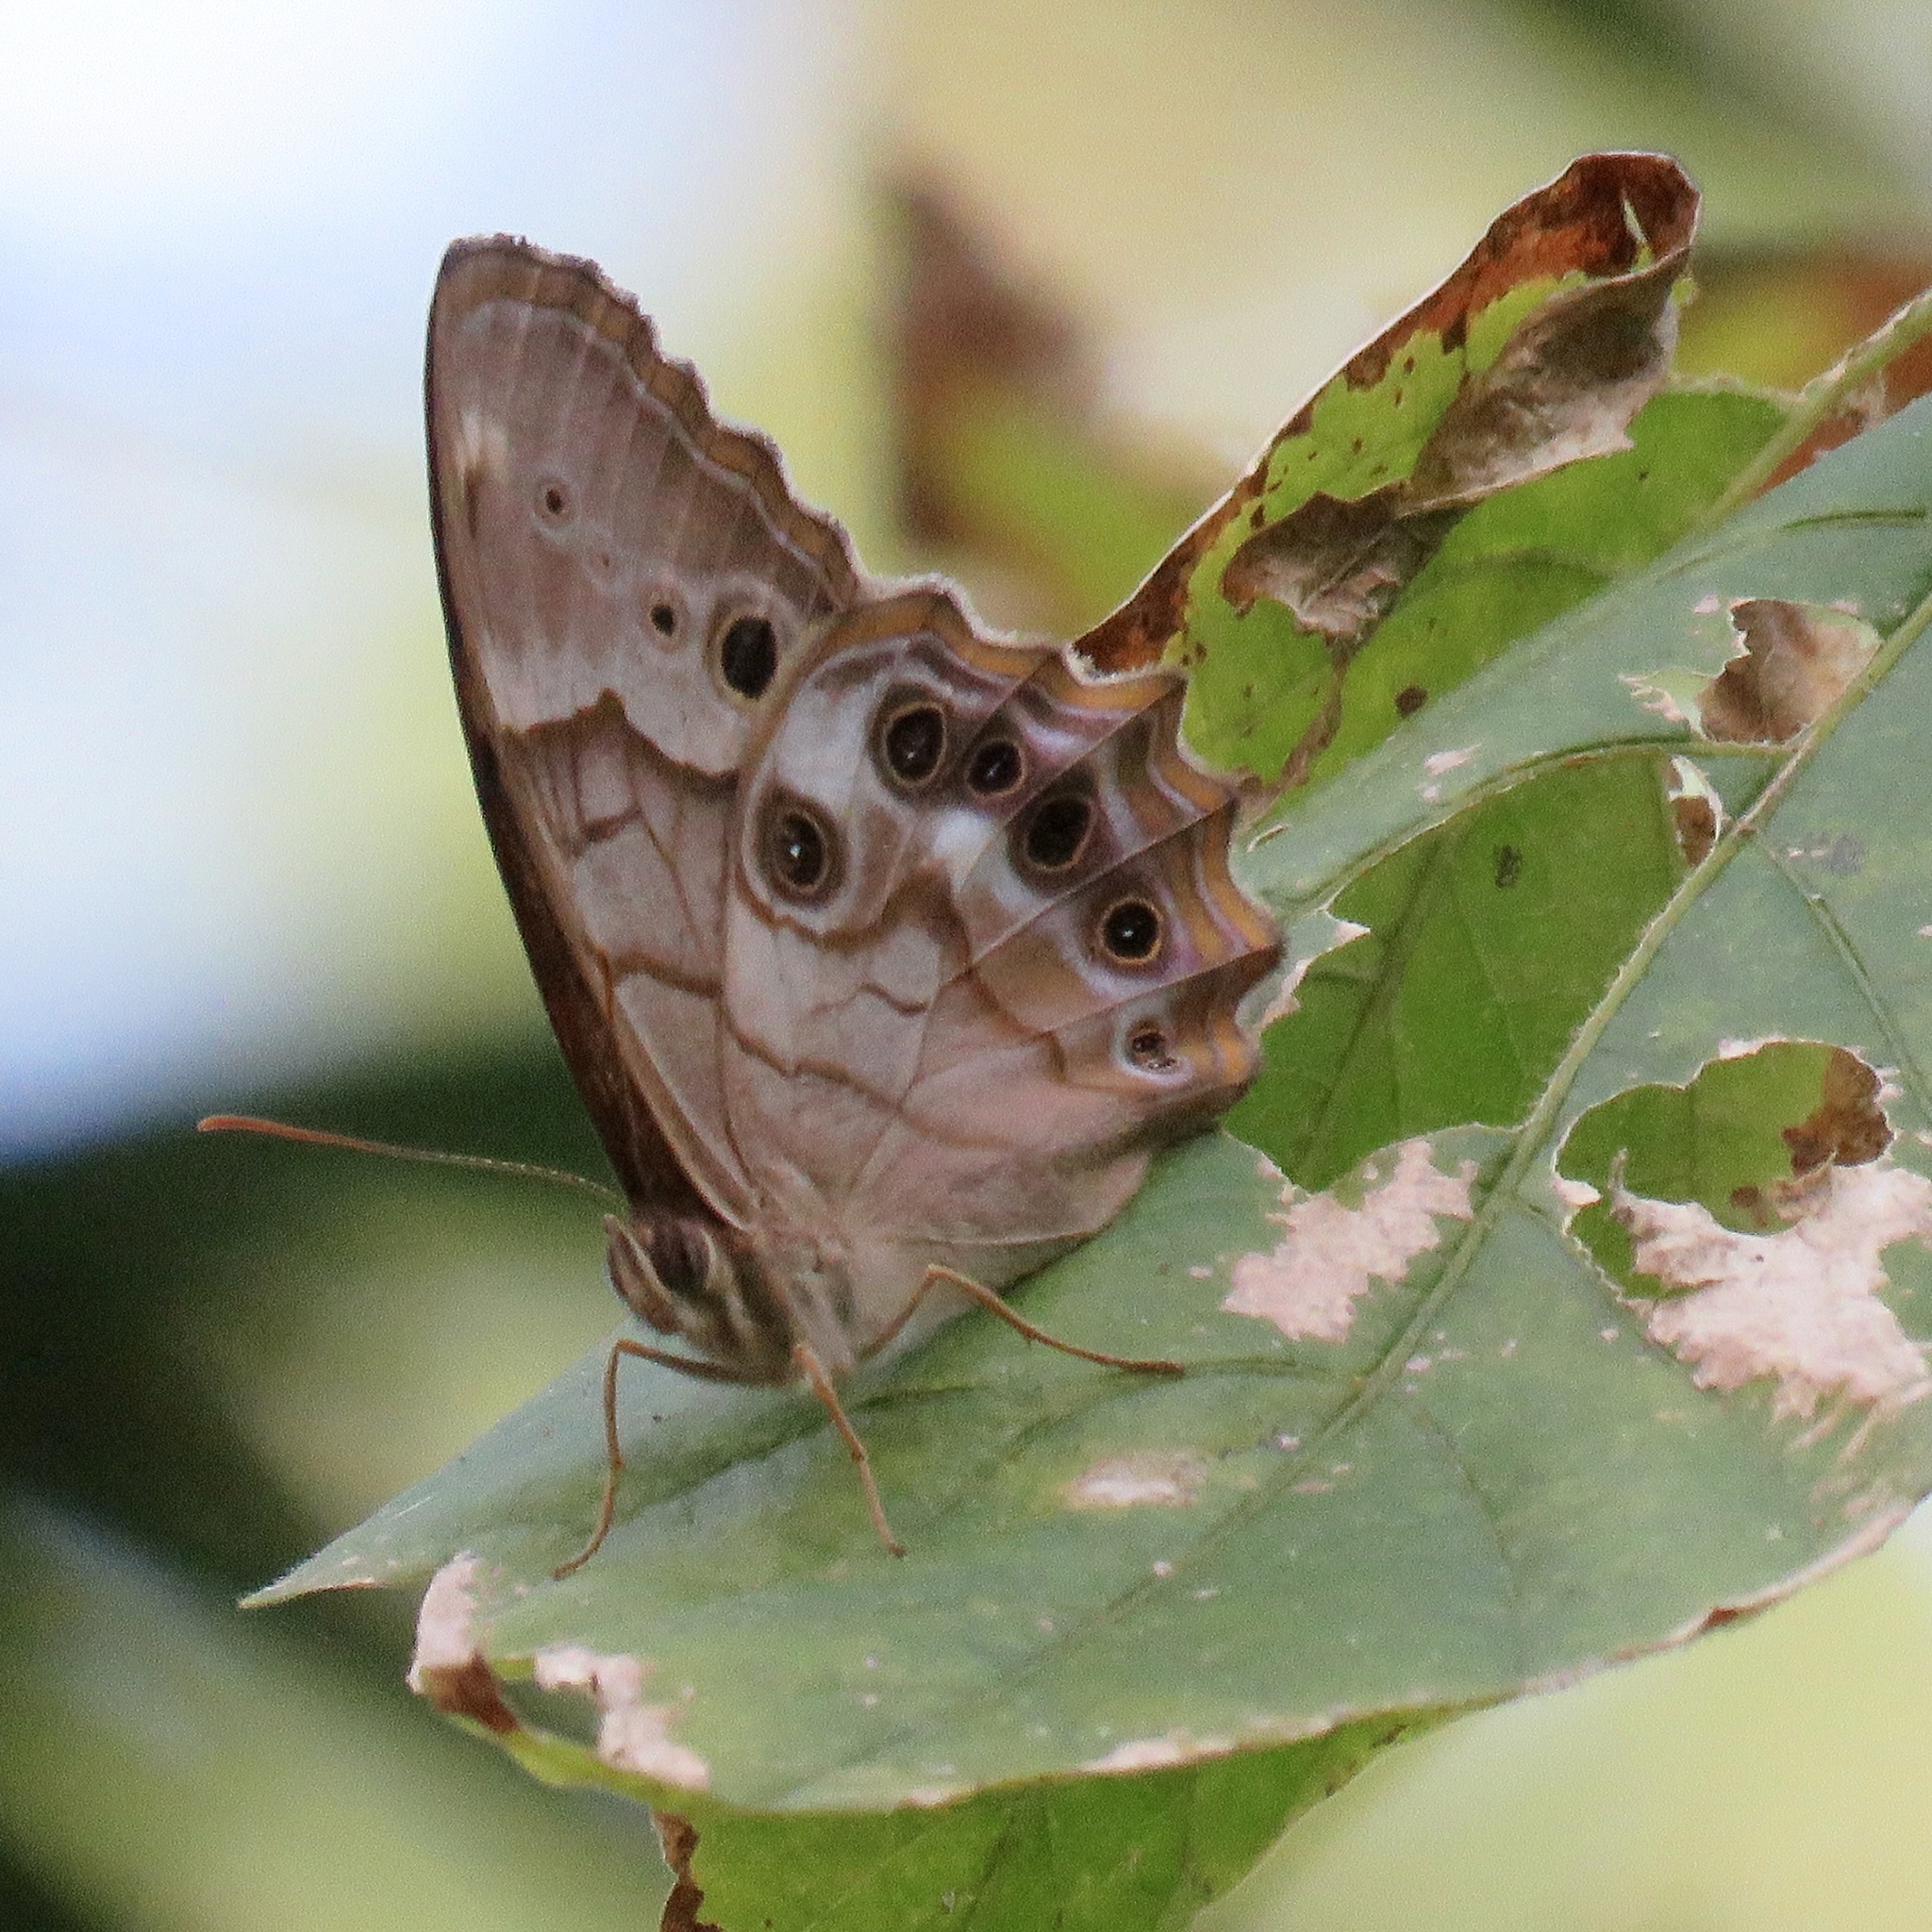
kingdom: Animalia
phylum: Arthropoda
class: Insecta
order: Lepidoptera
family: Nymphalidae
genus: Enodia
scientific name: Enodia portlandia
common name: Southern pearly-eye
